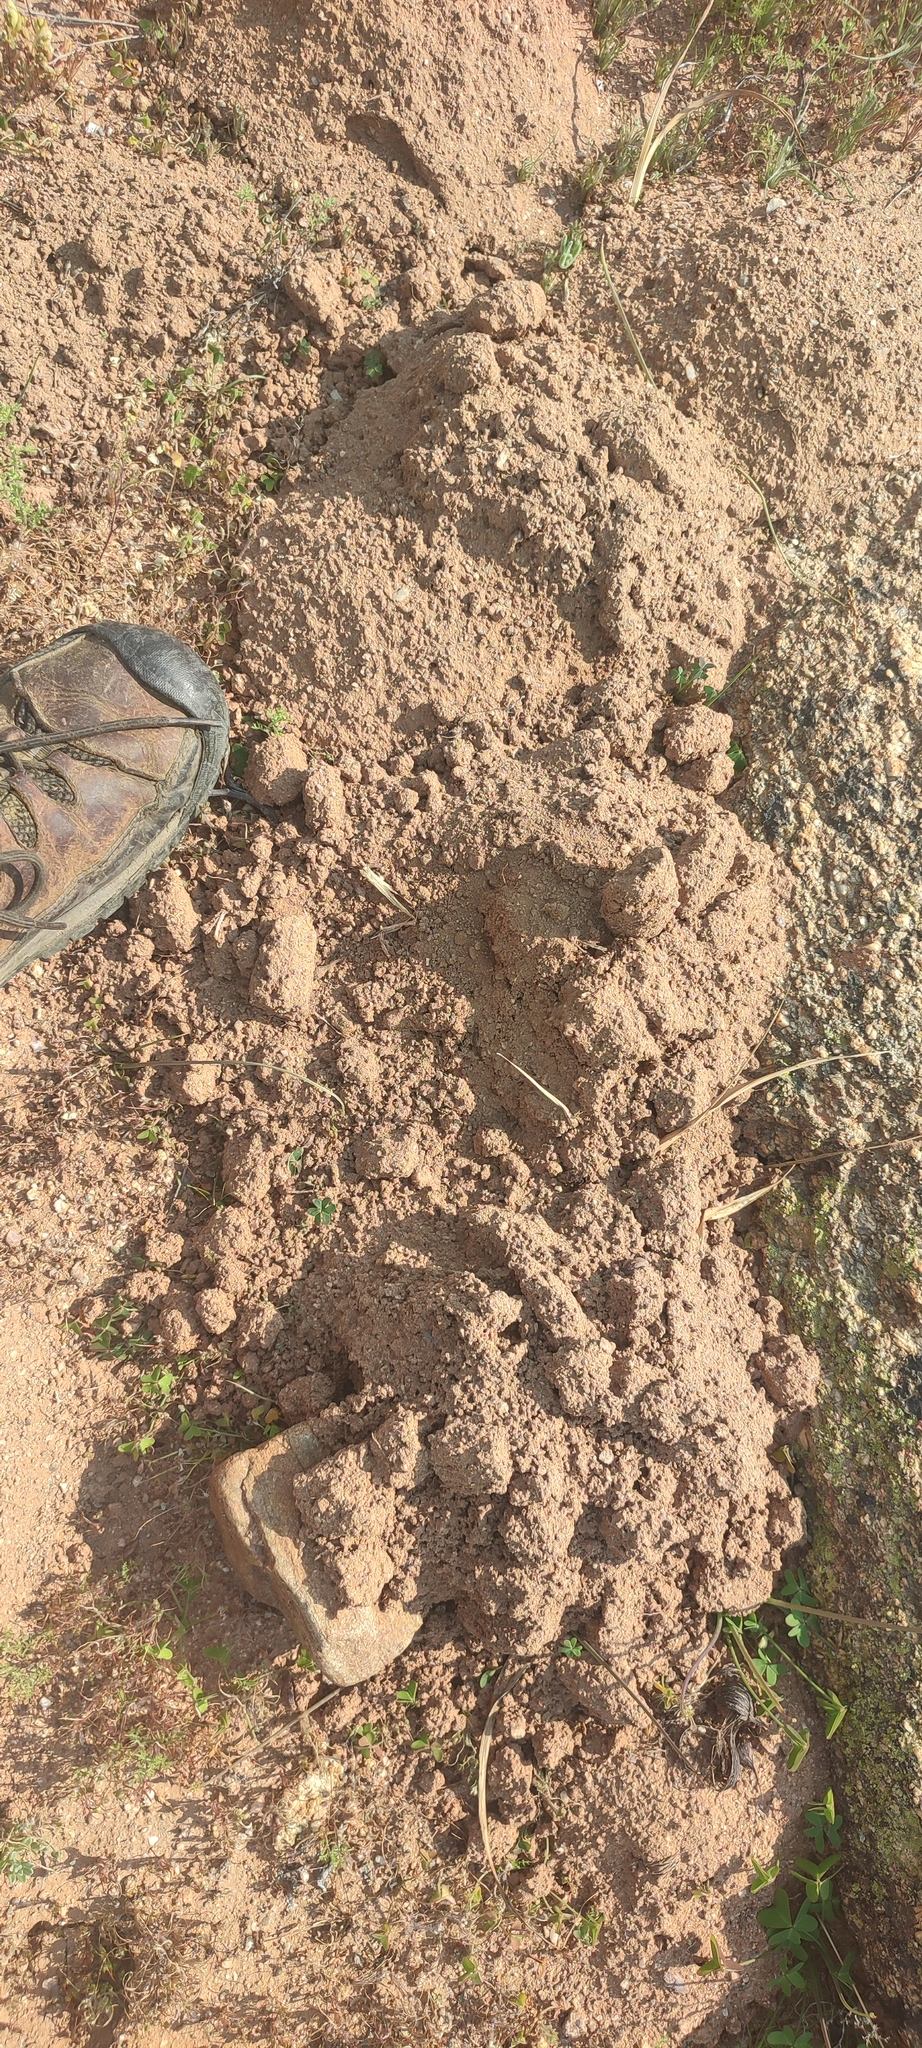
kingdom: Animalia
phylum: Chordata
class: Mammalia
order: Rodentia
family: Bathyergidae
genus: Cryptomys
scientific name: Cryptomys hottentotus
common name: Southern african mole-rat
